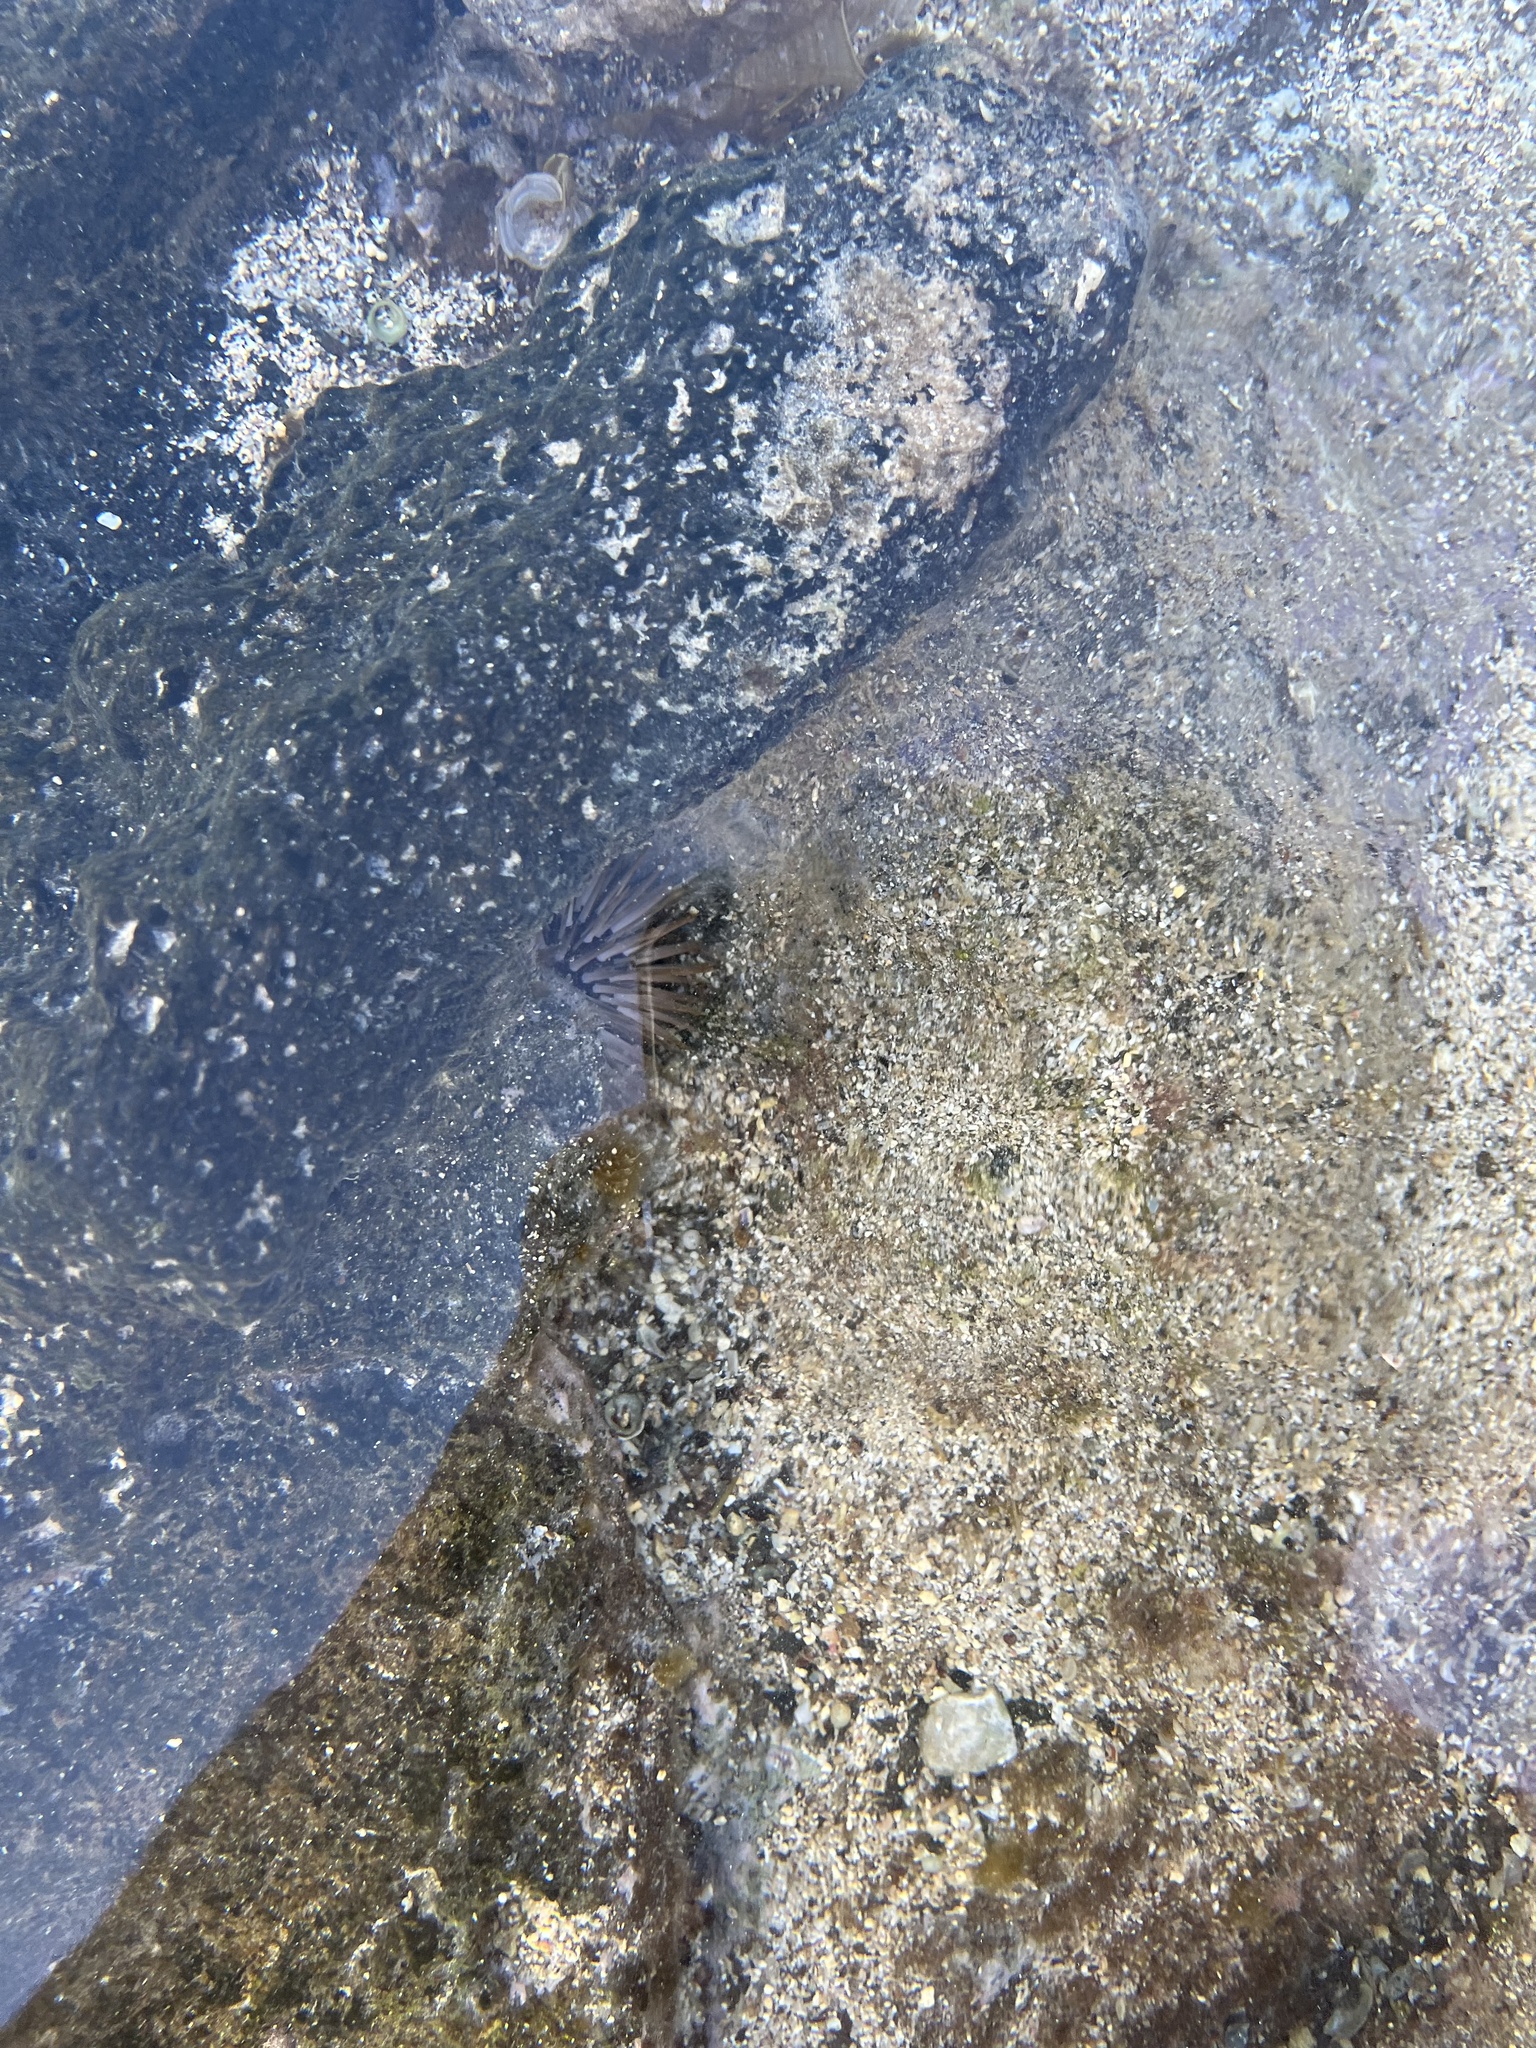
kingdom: Animalia
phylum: Echinodermata
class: Echinoidea
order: Camarodonta
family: Echinometridae
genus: Echinometra
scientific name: Echinometra mathaei
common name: Rock-boring urchin
